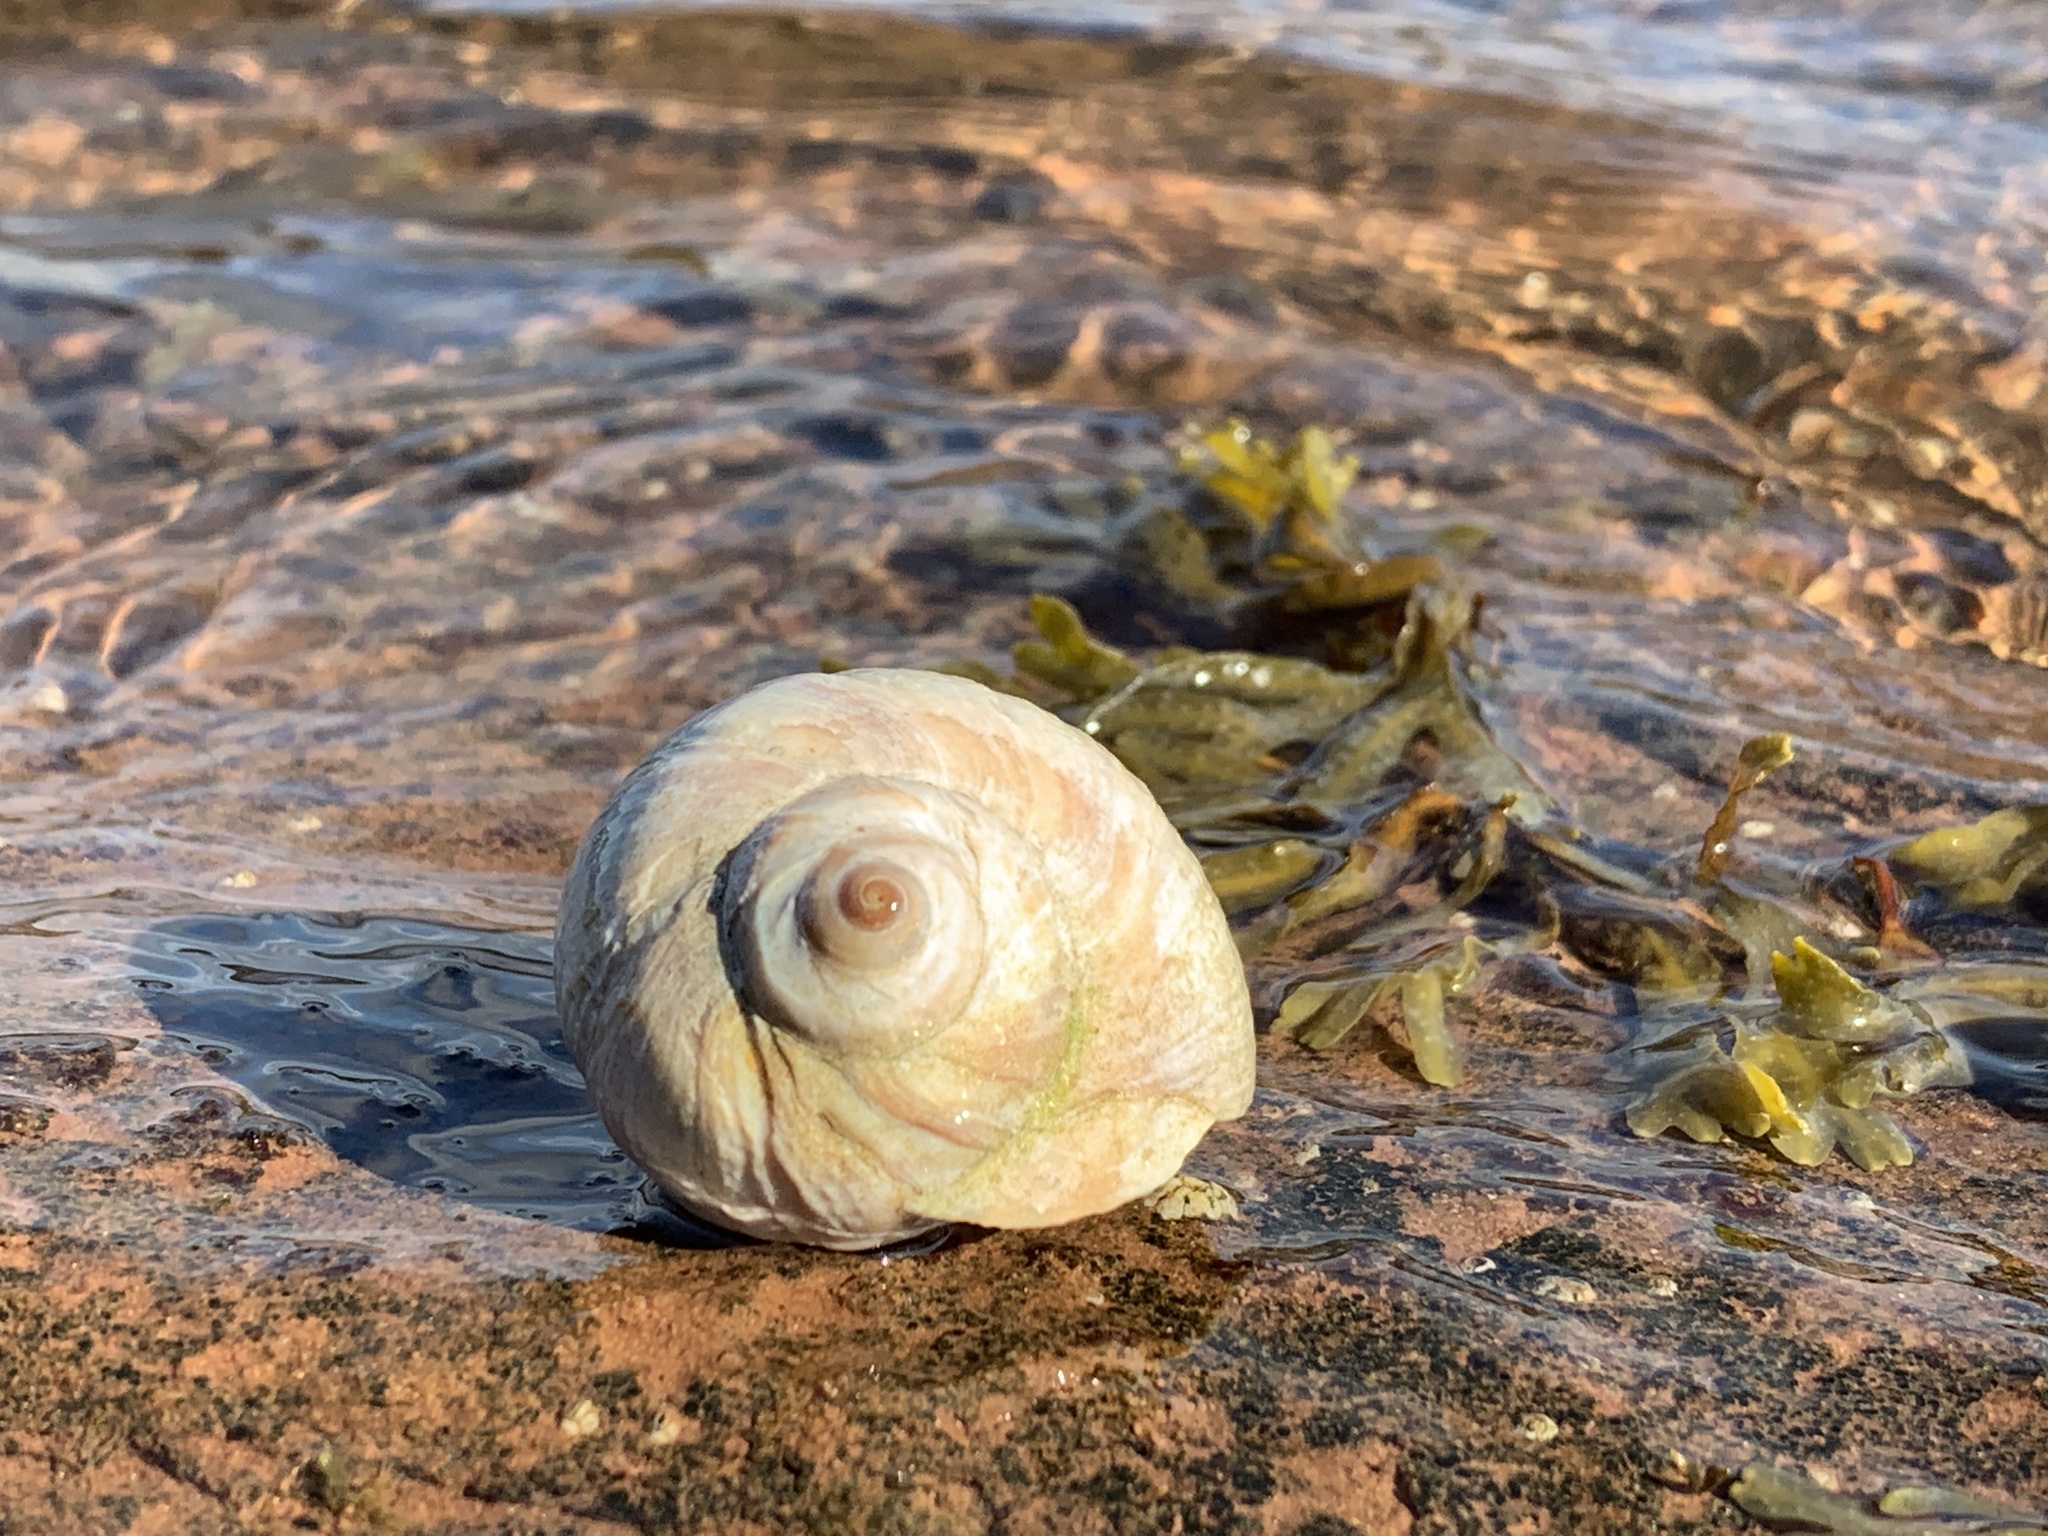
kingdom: Animalia
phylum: Mollusca
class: Gastropoda
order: Littorinimorpha
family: Naticidae
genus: Euspira
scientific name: Euspira heros
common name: Common northern moonsnail
